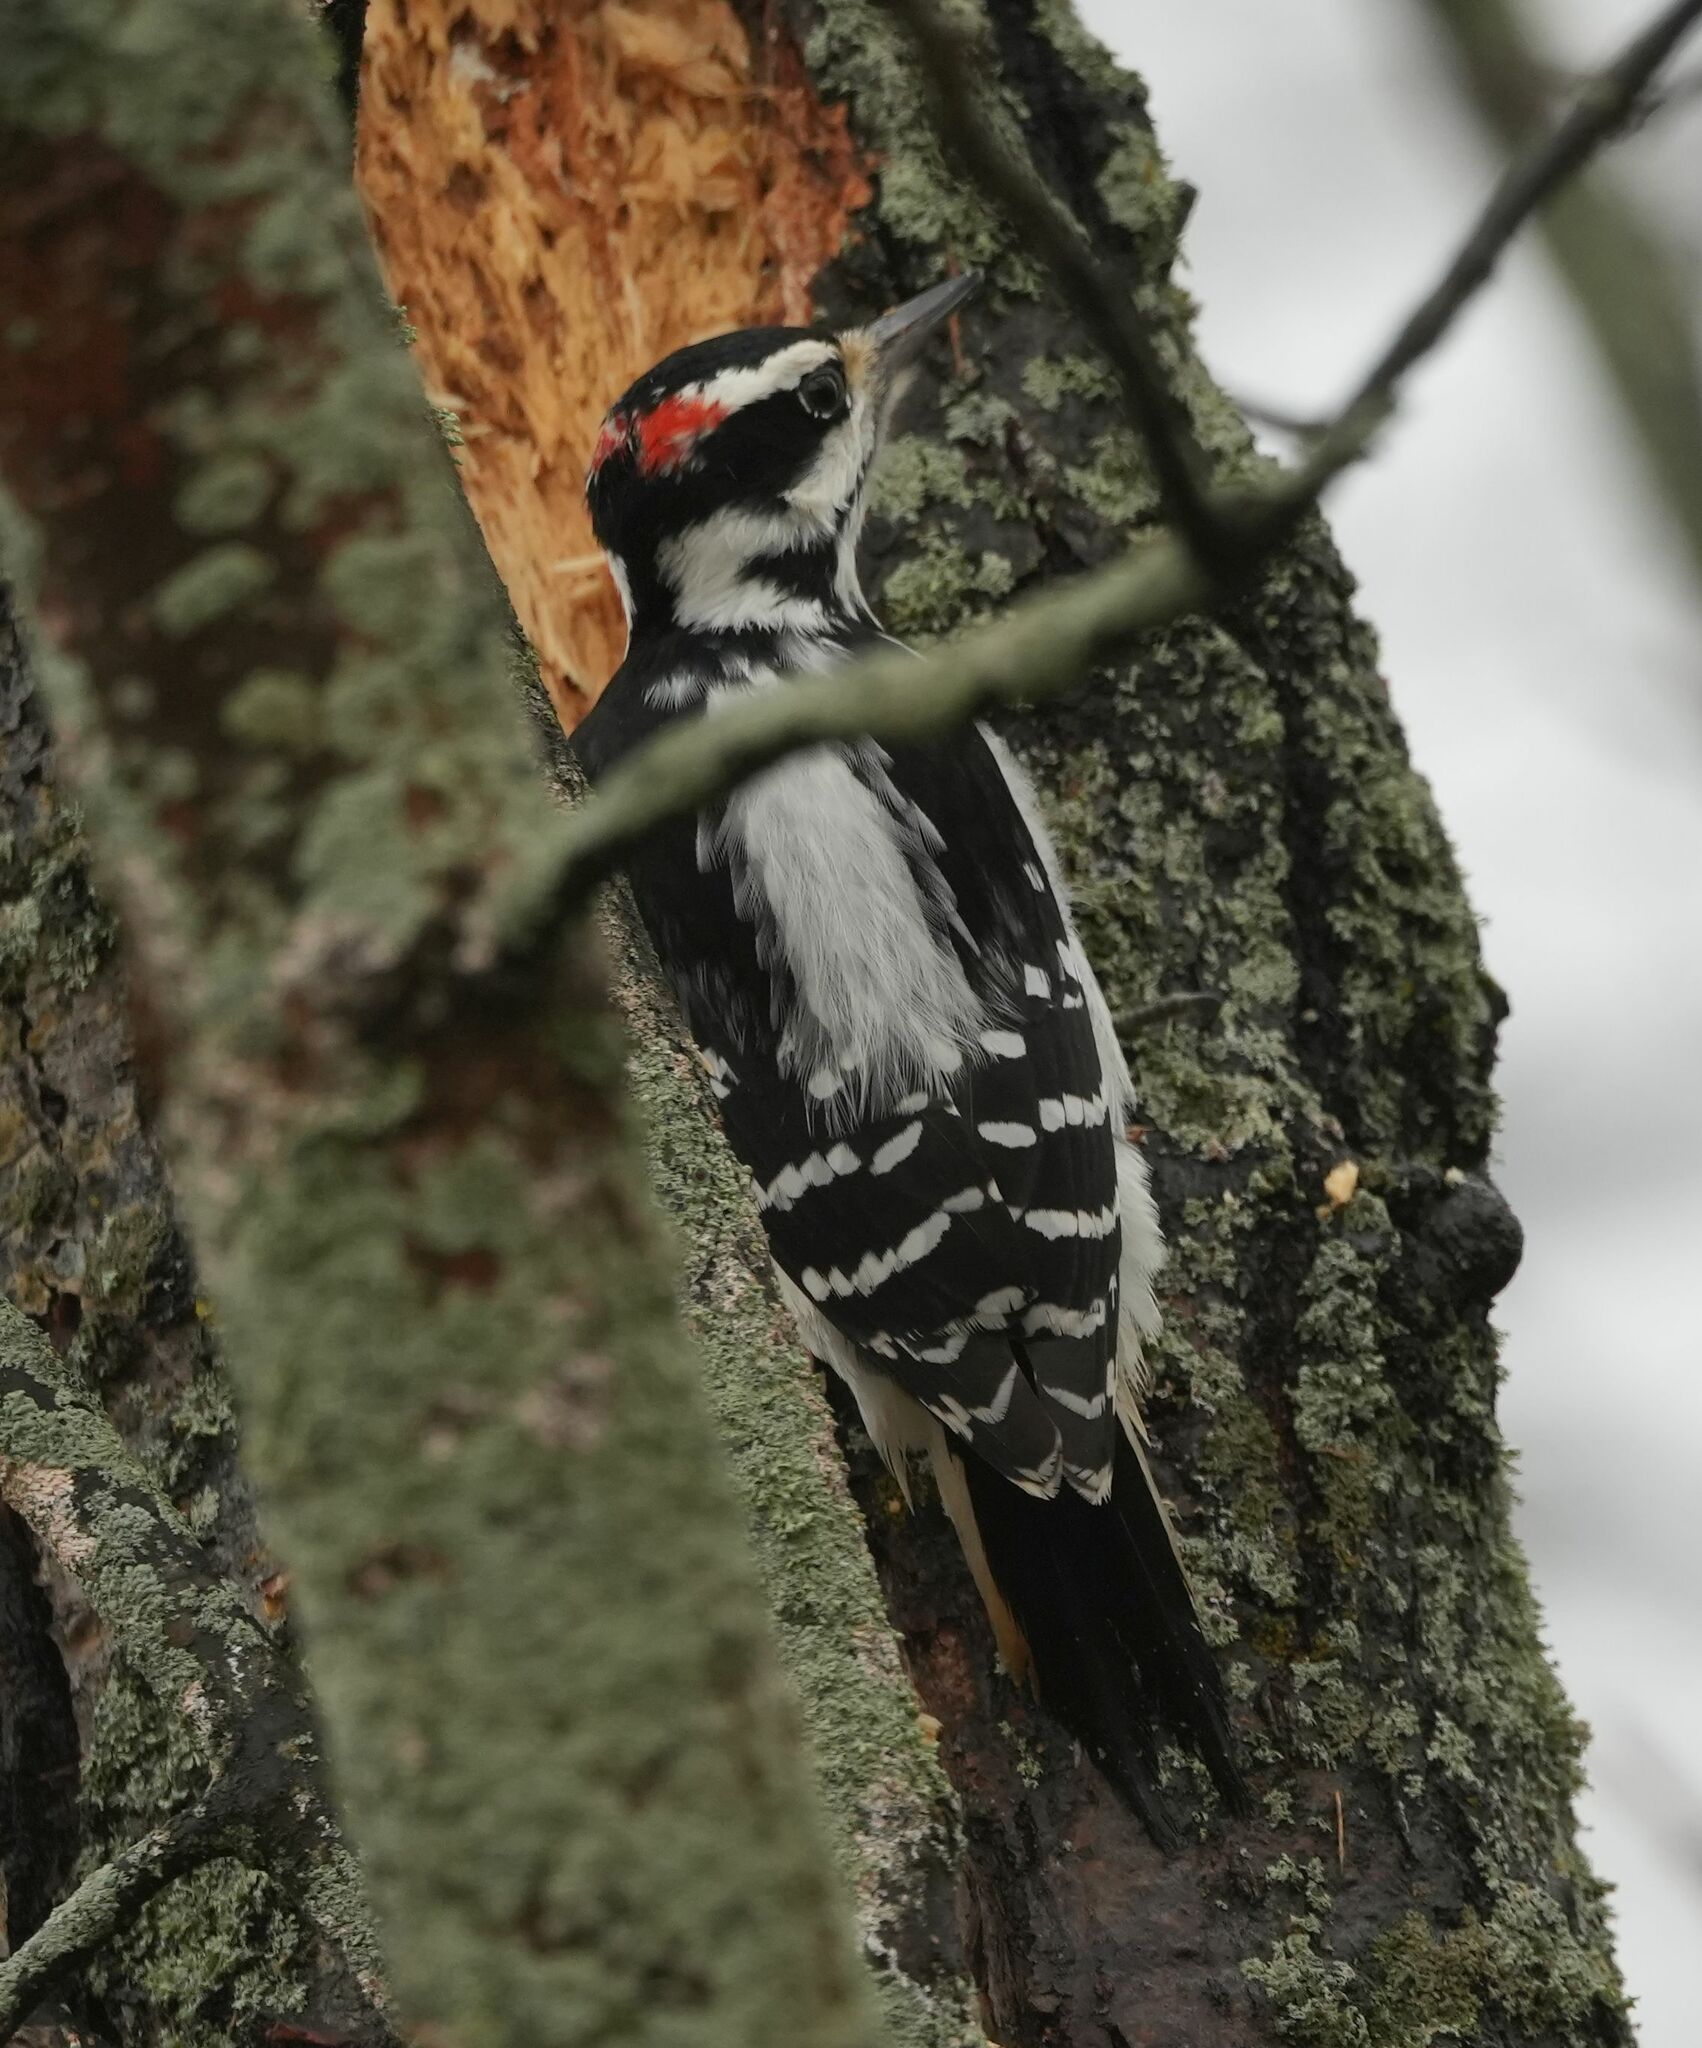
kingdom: Animalia
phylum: Chordata
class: Aves
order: Piciformes
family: Picidae
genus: Leuconotopicus
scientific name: Leuconotopicus villosus
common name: Hairy woodpecker
